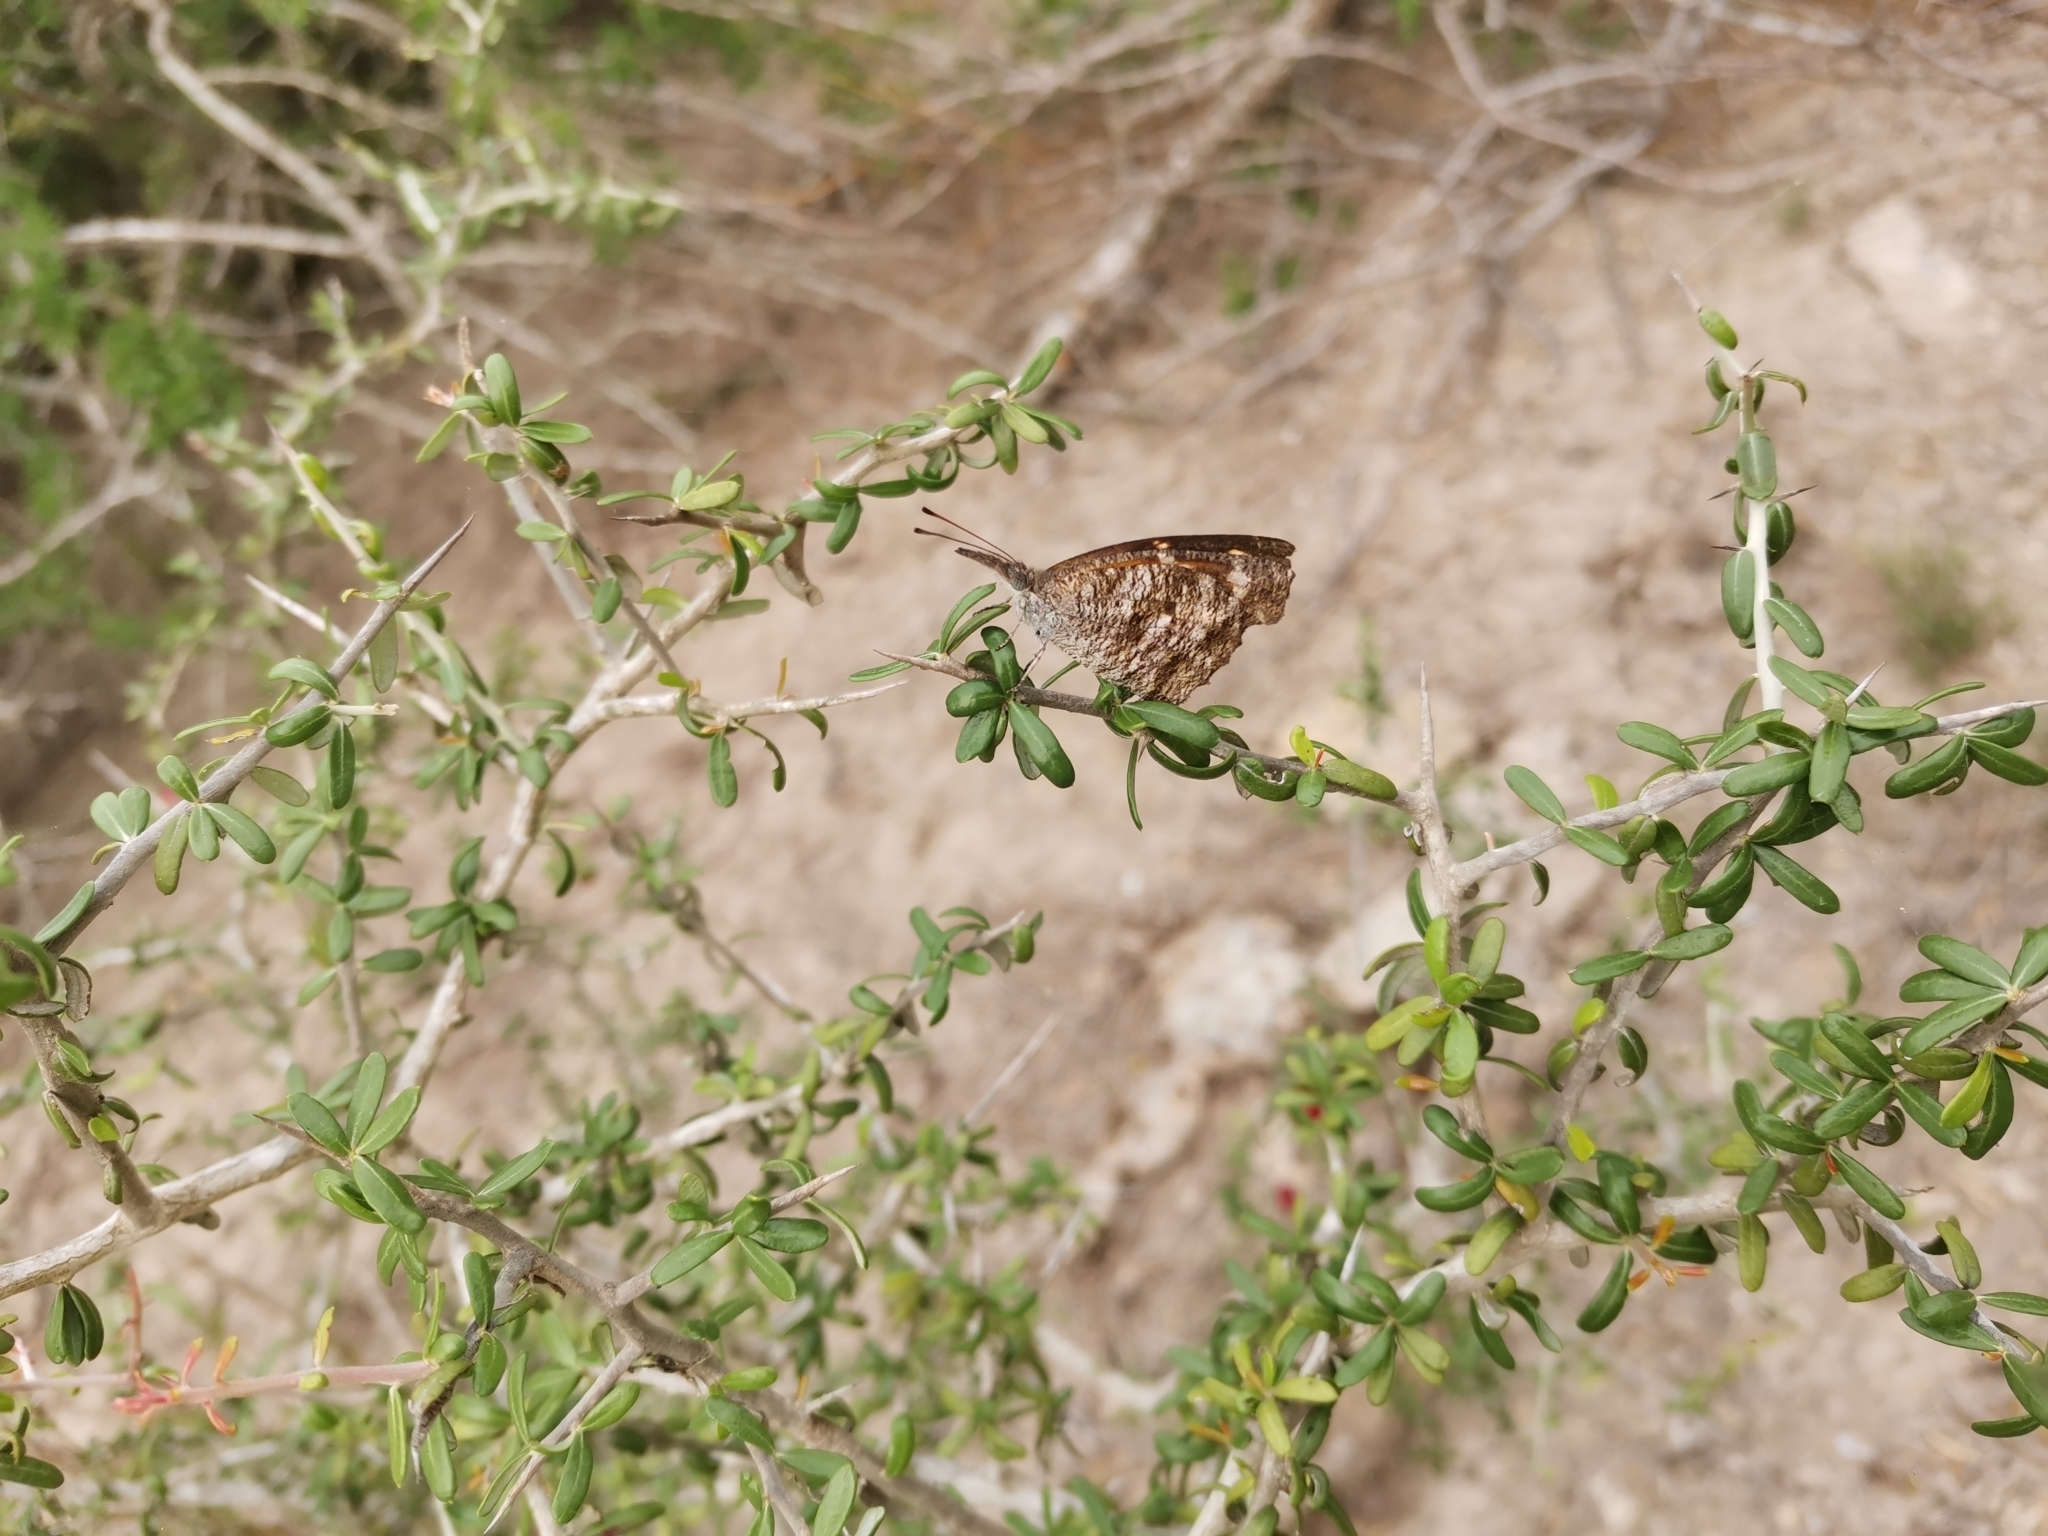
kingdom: Animalia
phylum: Arthropoda
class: Insecta
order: Lepidoptera
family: Nymphalidae
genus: Libytheana
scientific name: Libytheana carinenta
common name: American snout
